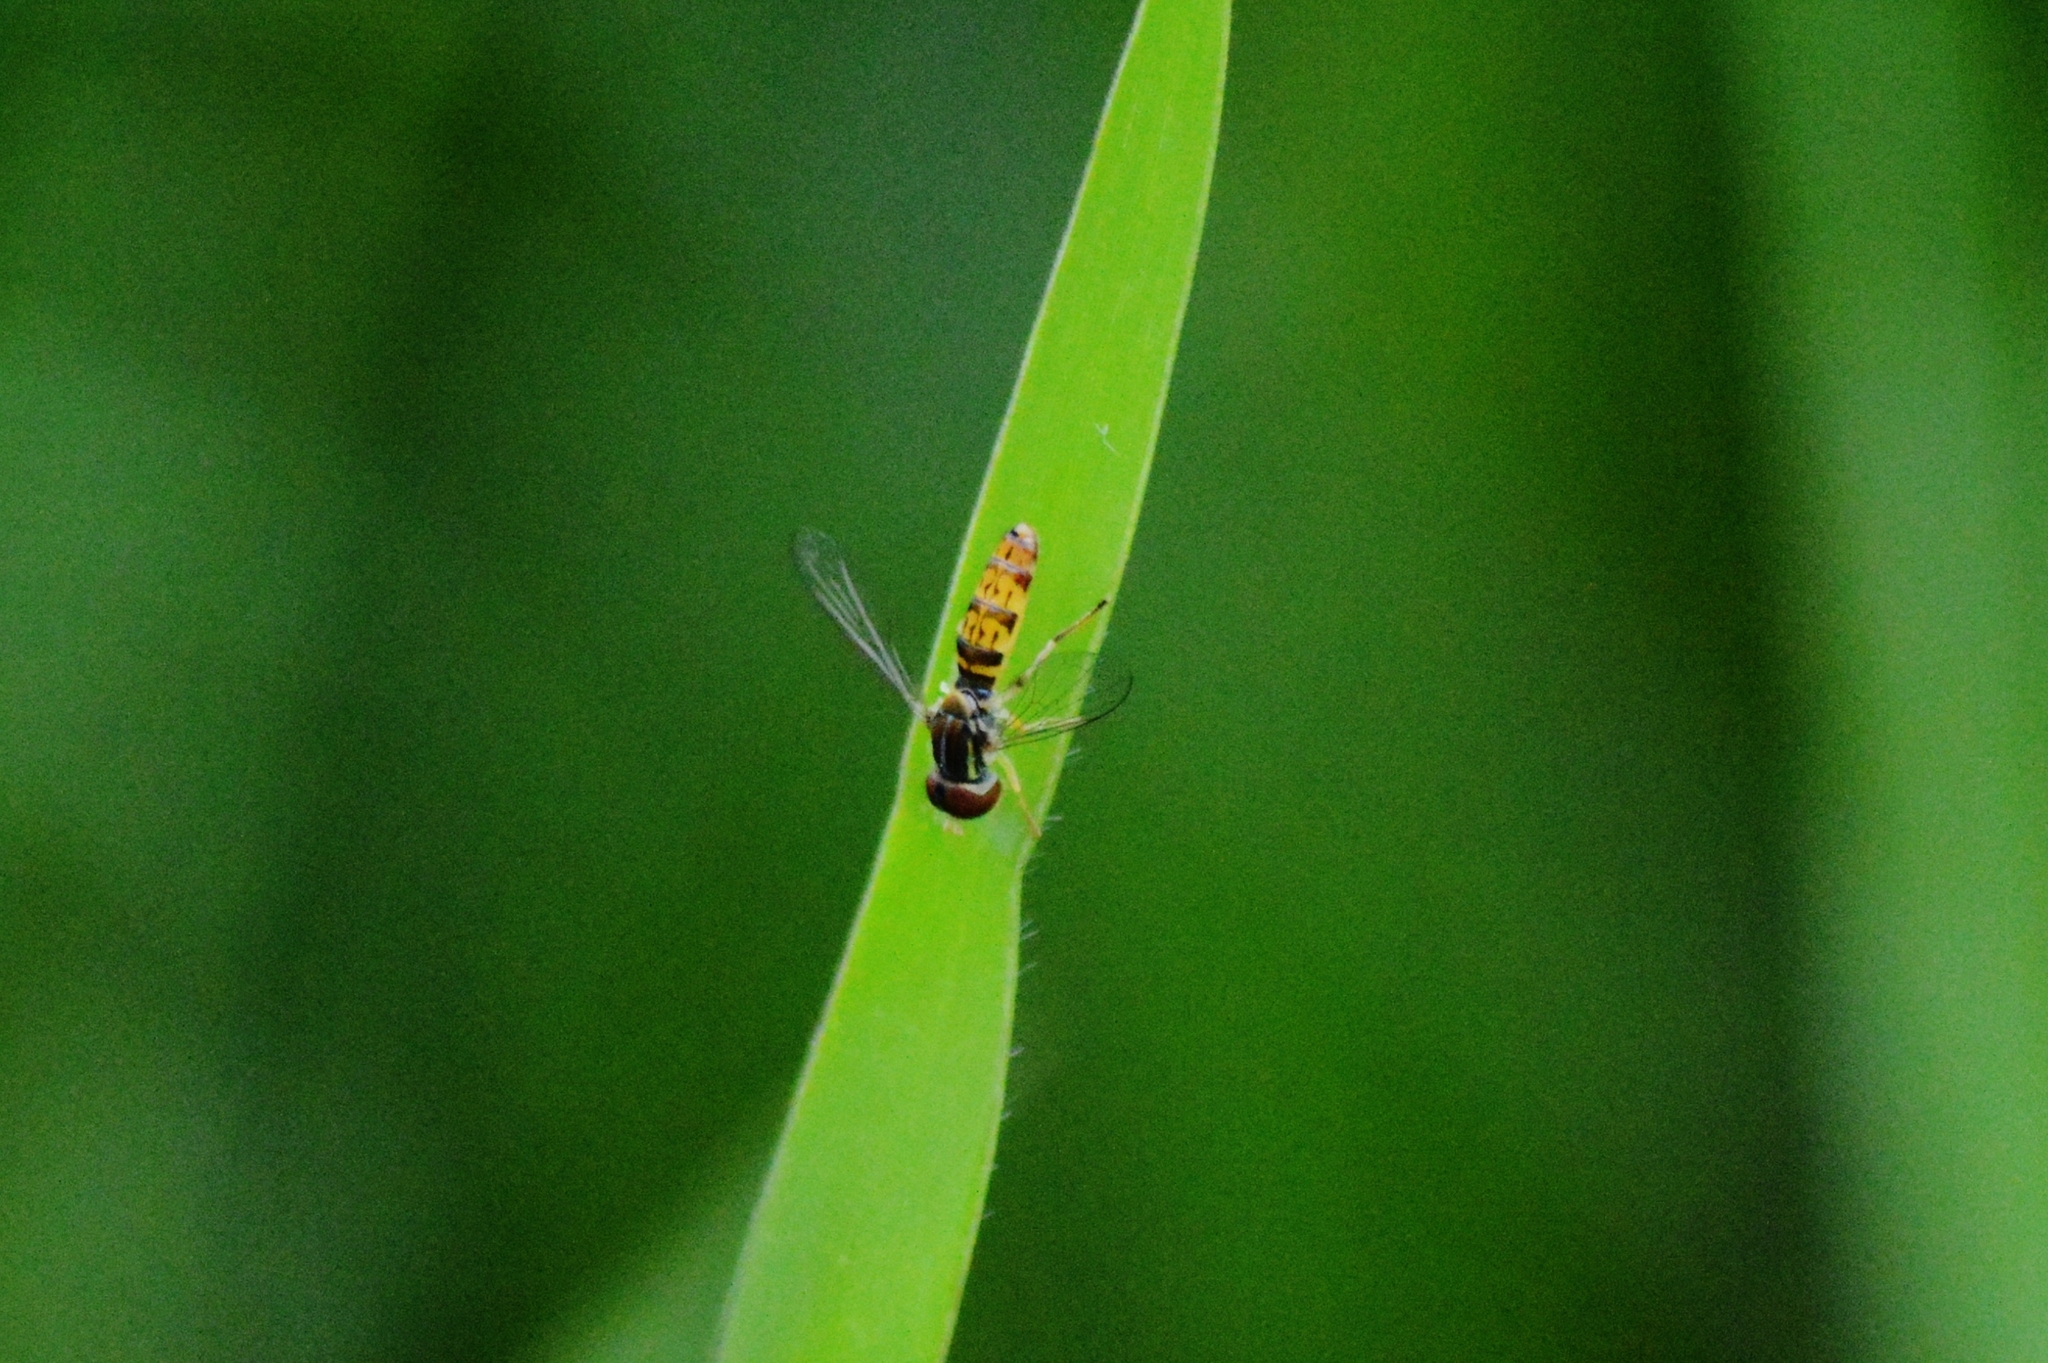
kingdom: Animalia
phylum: Arthropoda
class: Insecta
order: Diptera
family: Syrphidae
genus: Toxomerus
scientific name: Toxomerus
